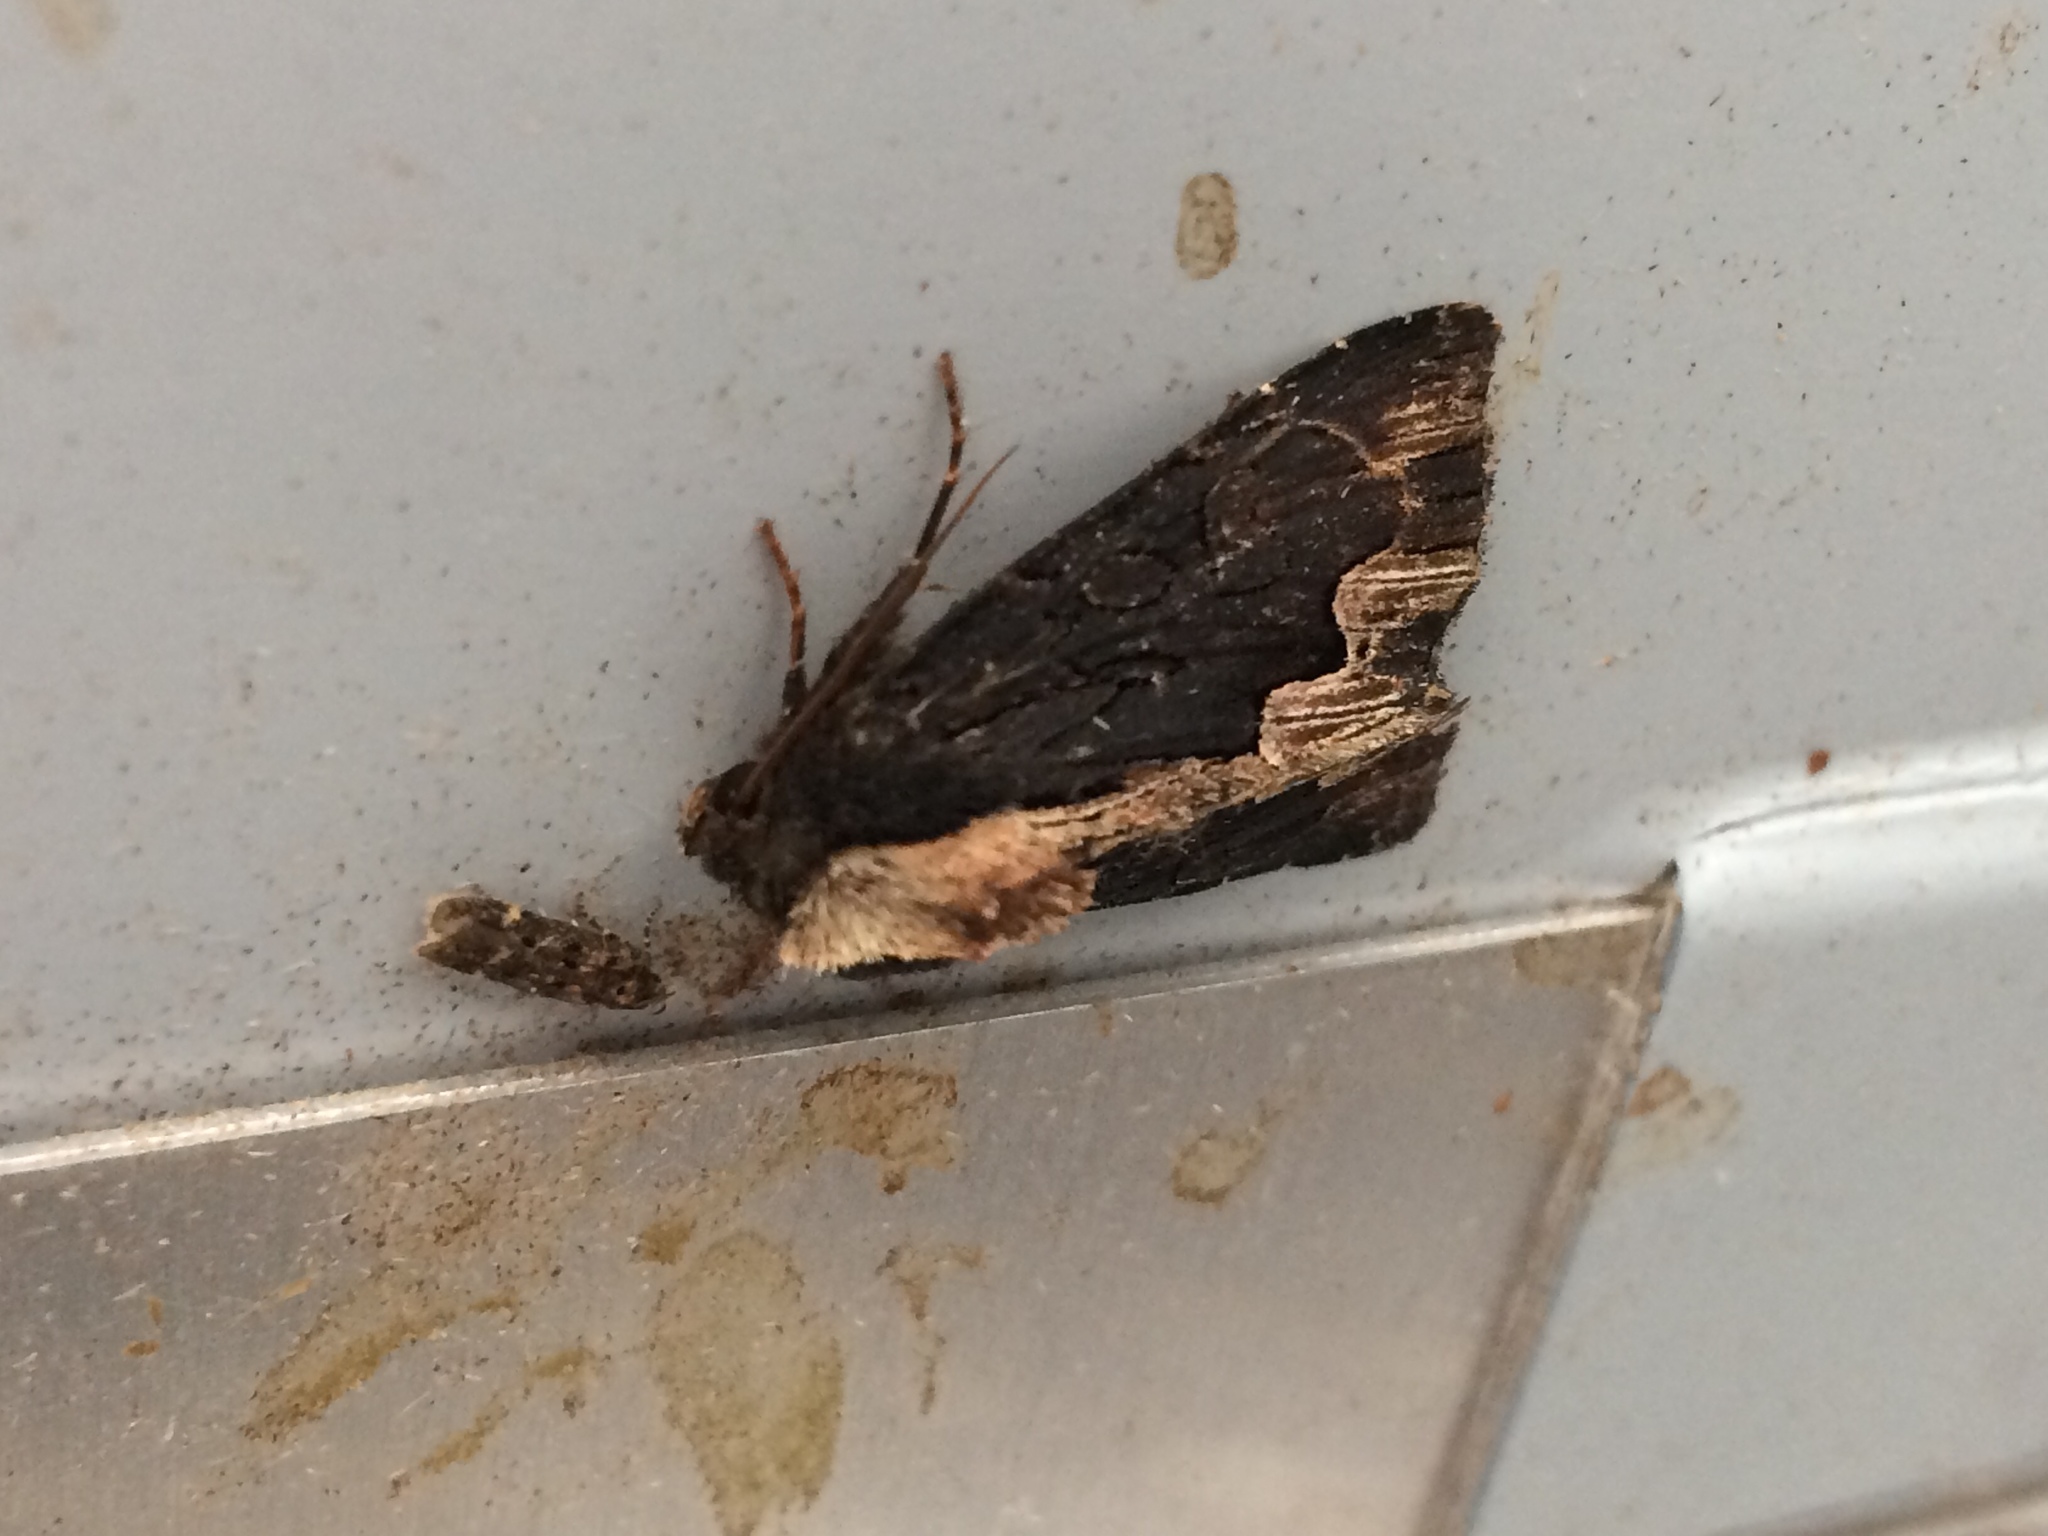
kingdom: Animalia
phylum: Arthropoda
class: Insecta
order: Lepidoptera
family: Noctuidae
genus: Dypterygia
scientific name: Dypterygia scabriuscula
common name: Bird's wing
